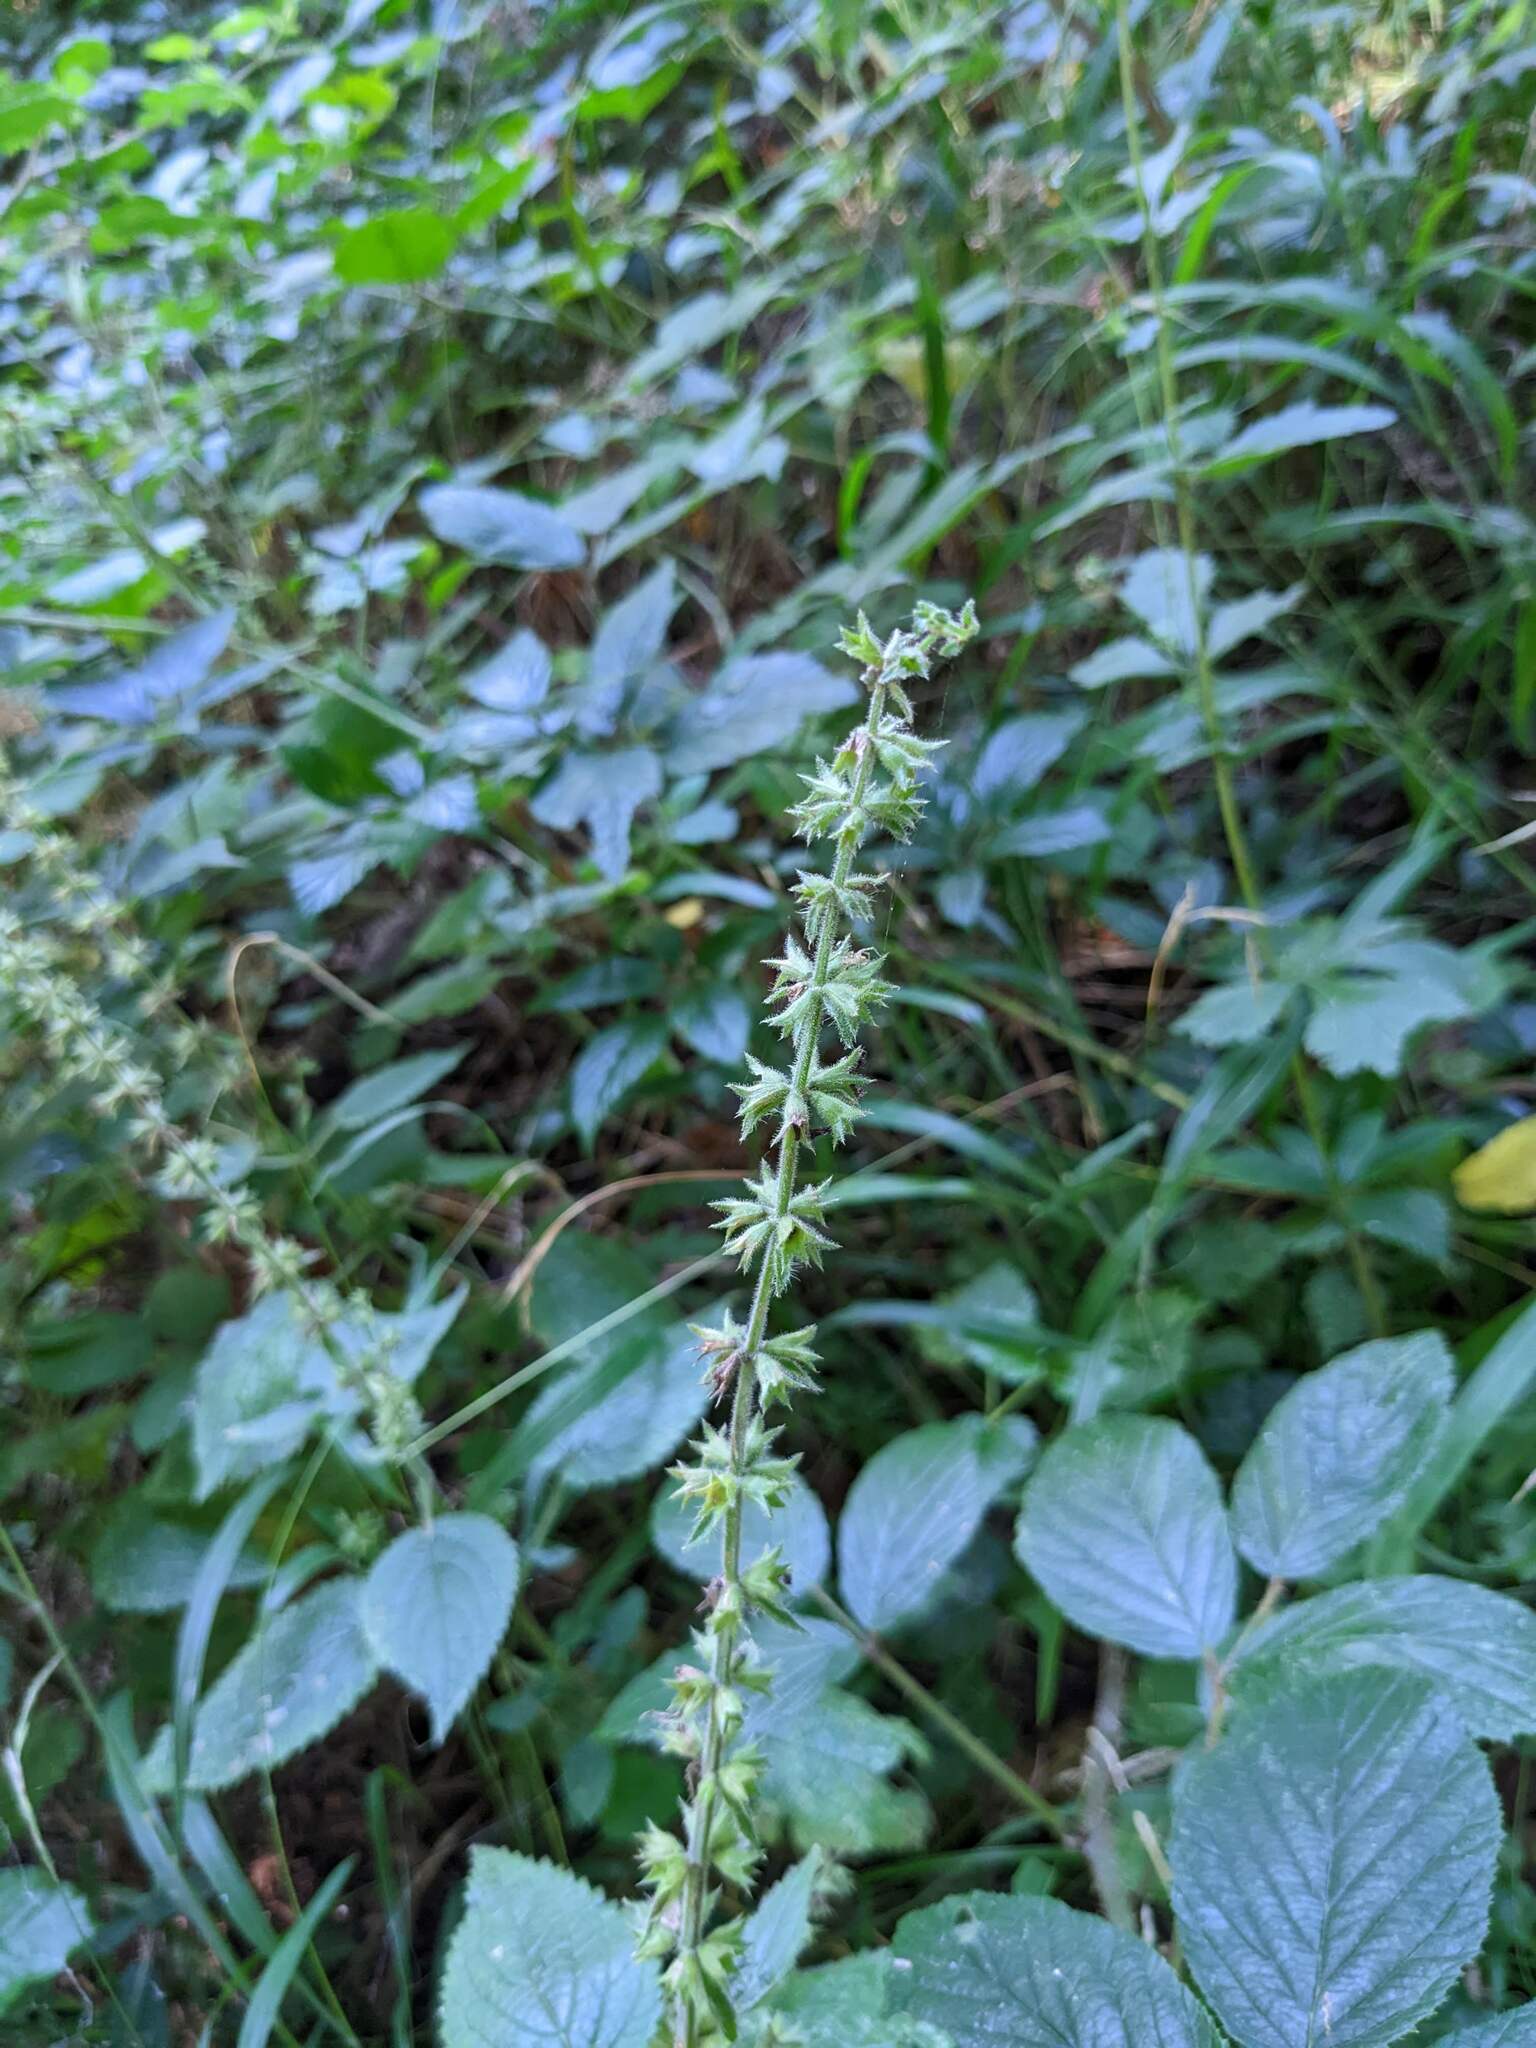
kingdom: Plantae
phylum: Tracheophyta
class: Magnoliopsida
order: Lamiales
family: Lamiaceae
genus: Stachys
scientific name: Stachys sylvatica
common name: Hedge woundwort
